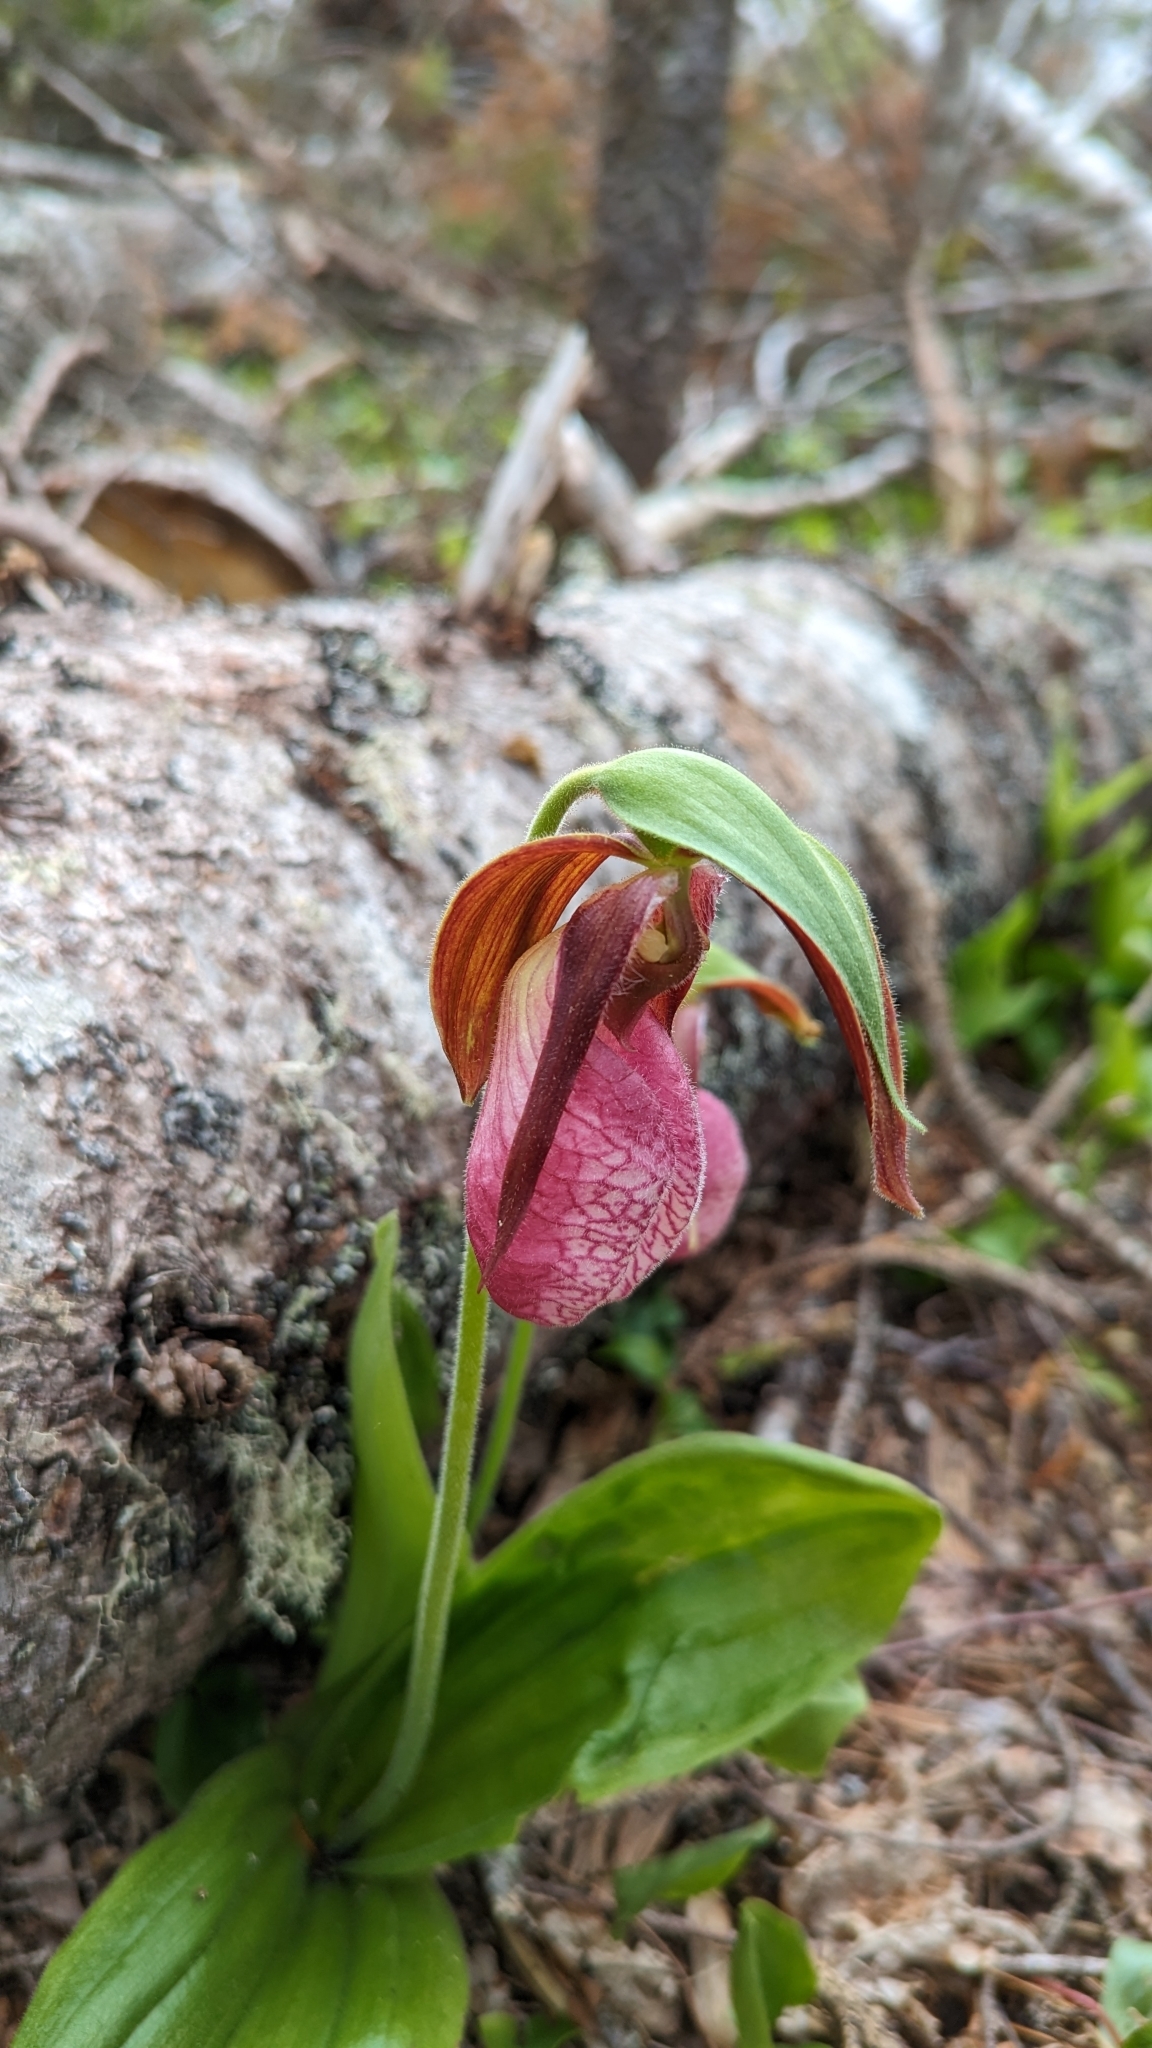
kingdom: Plantae
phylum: Tracheophyta
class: Liliopsida
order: Asparagales
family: Orchidaceae
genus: Cypripedium
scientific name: Cypripedium acaule
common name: Pink lady's-slipper
